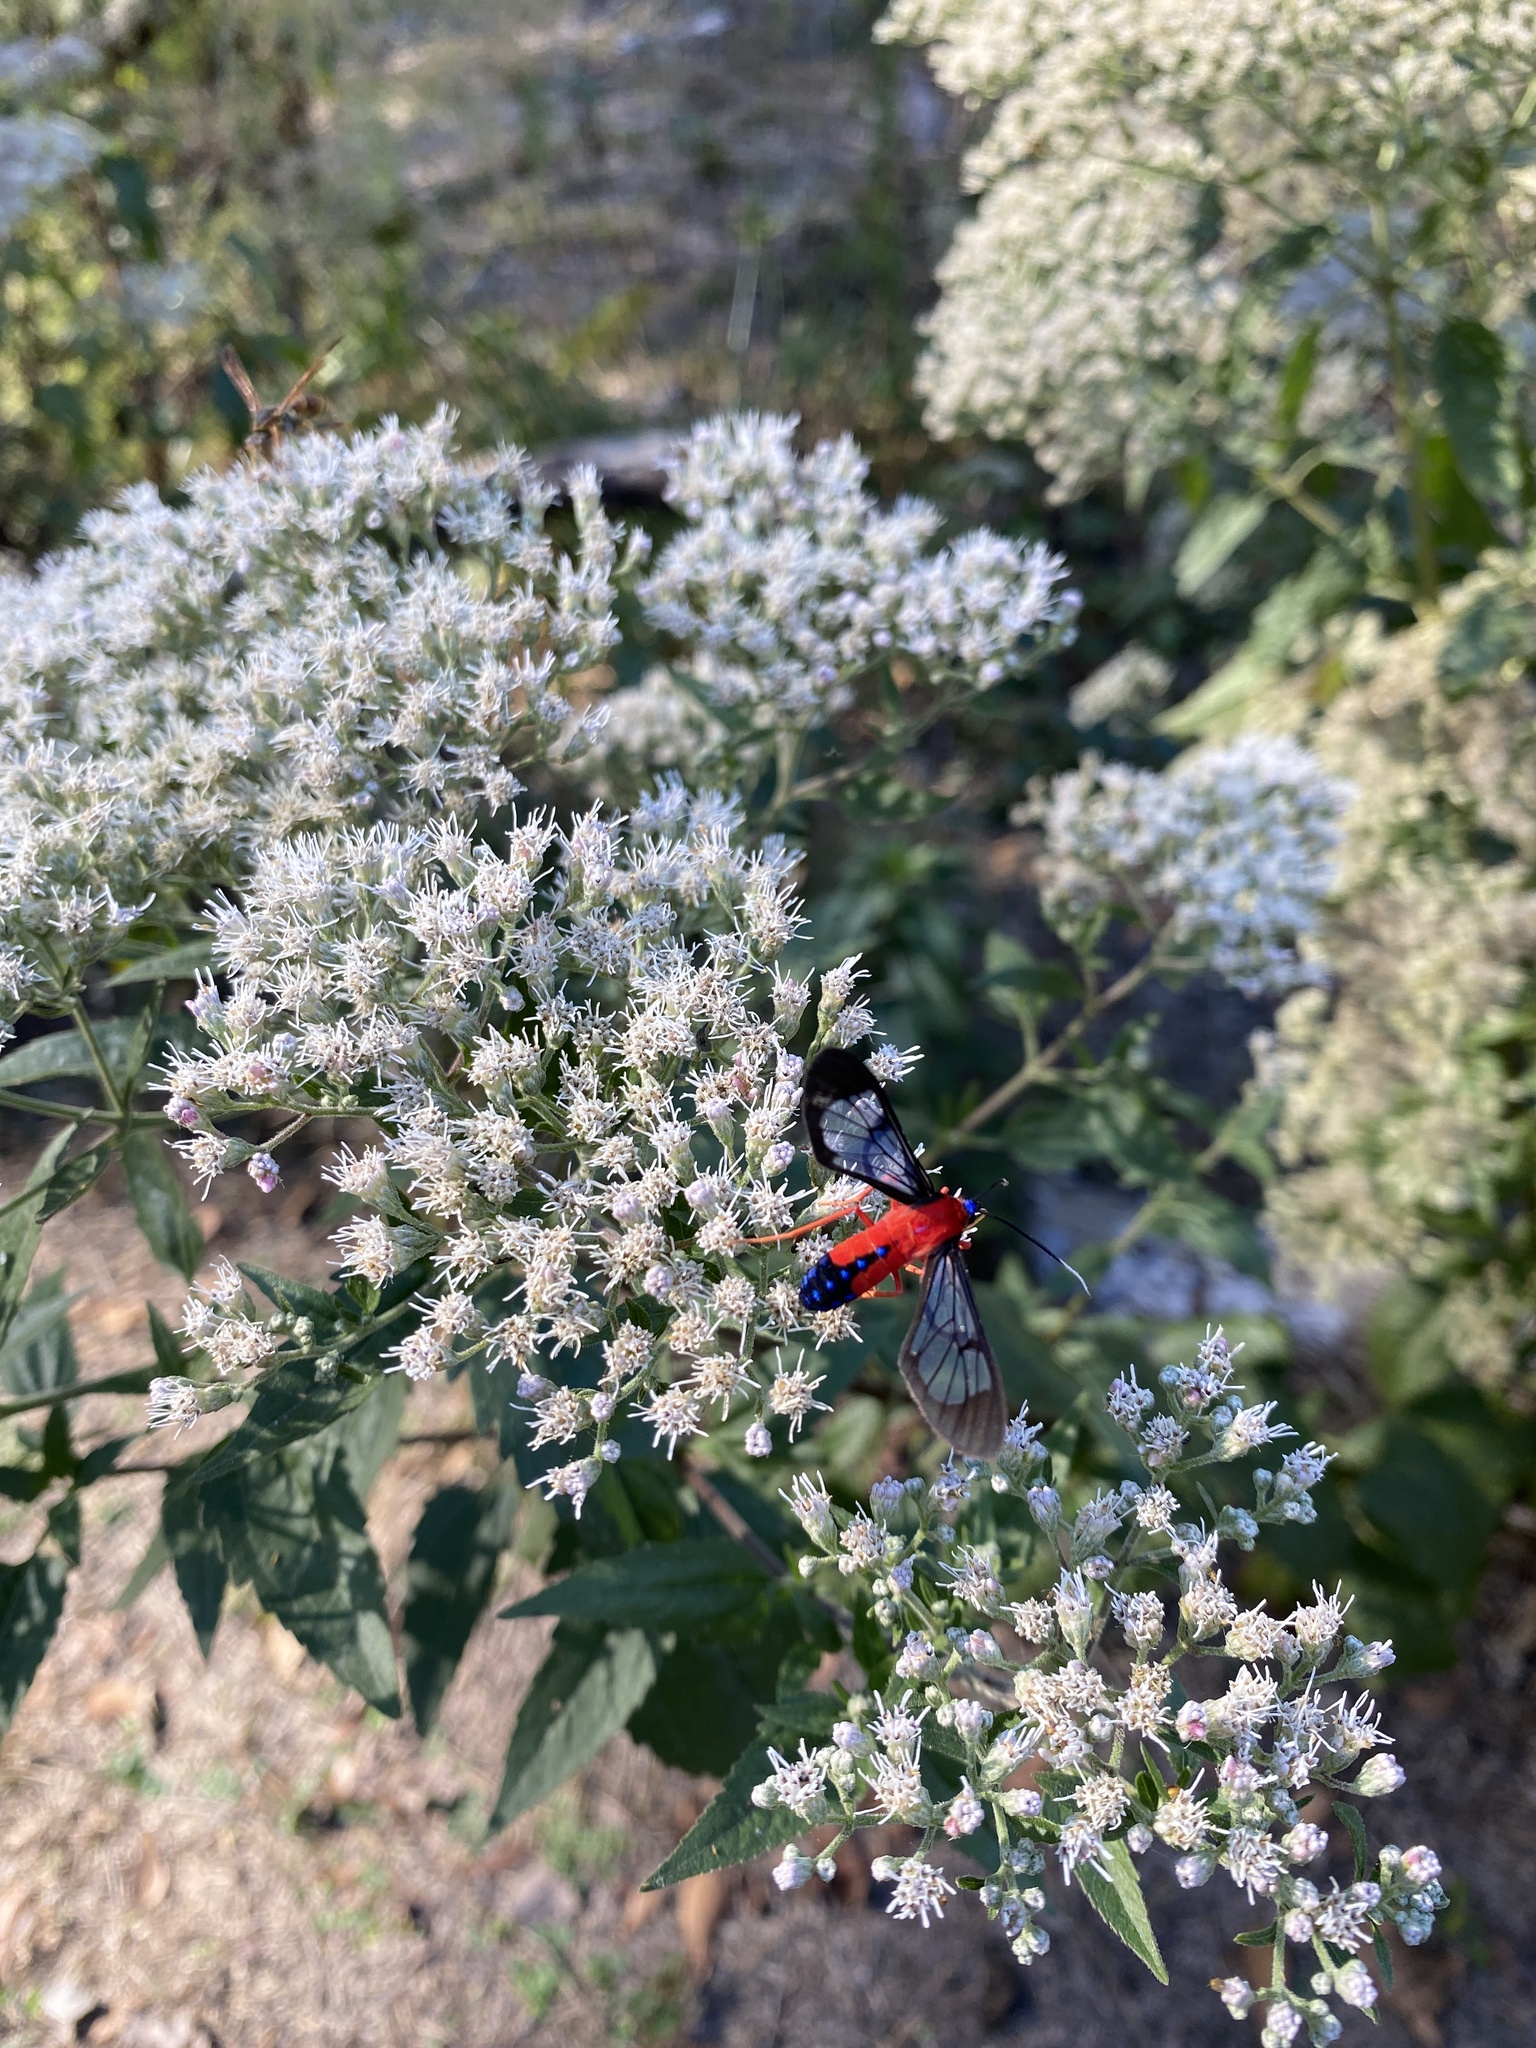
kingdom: Animalia
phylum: Arthropoda
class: Insecta
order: Lepidoptera
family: Erebidae
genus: Cosmosoma
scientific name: Cosmosoma myrodora
